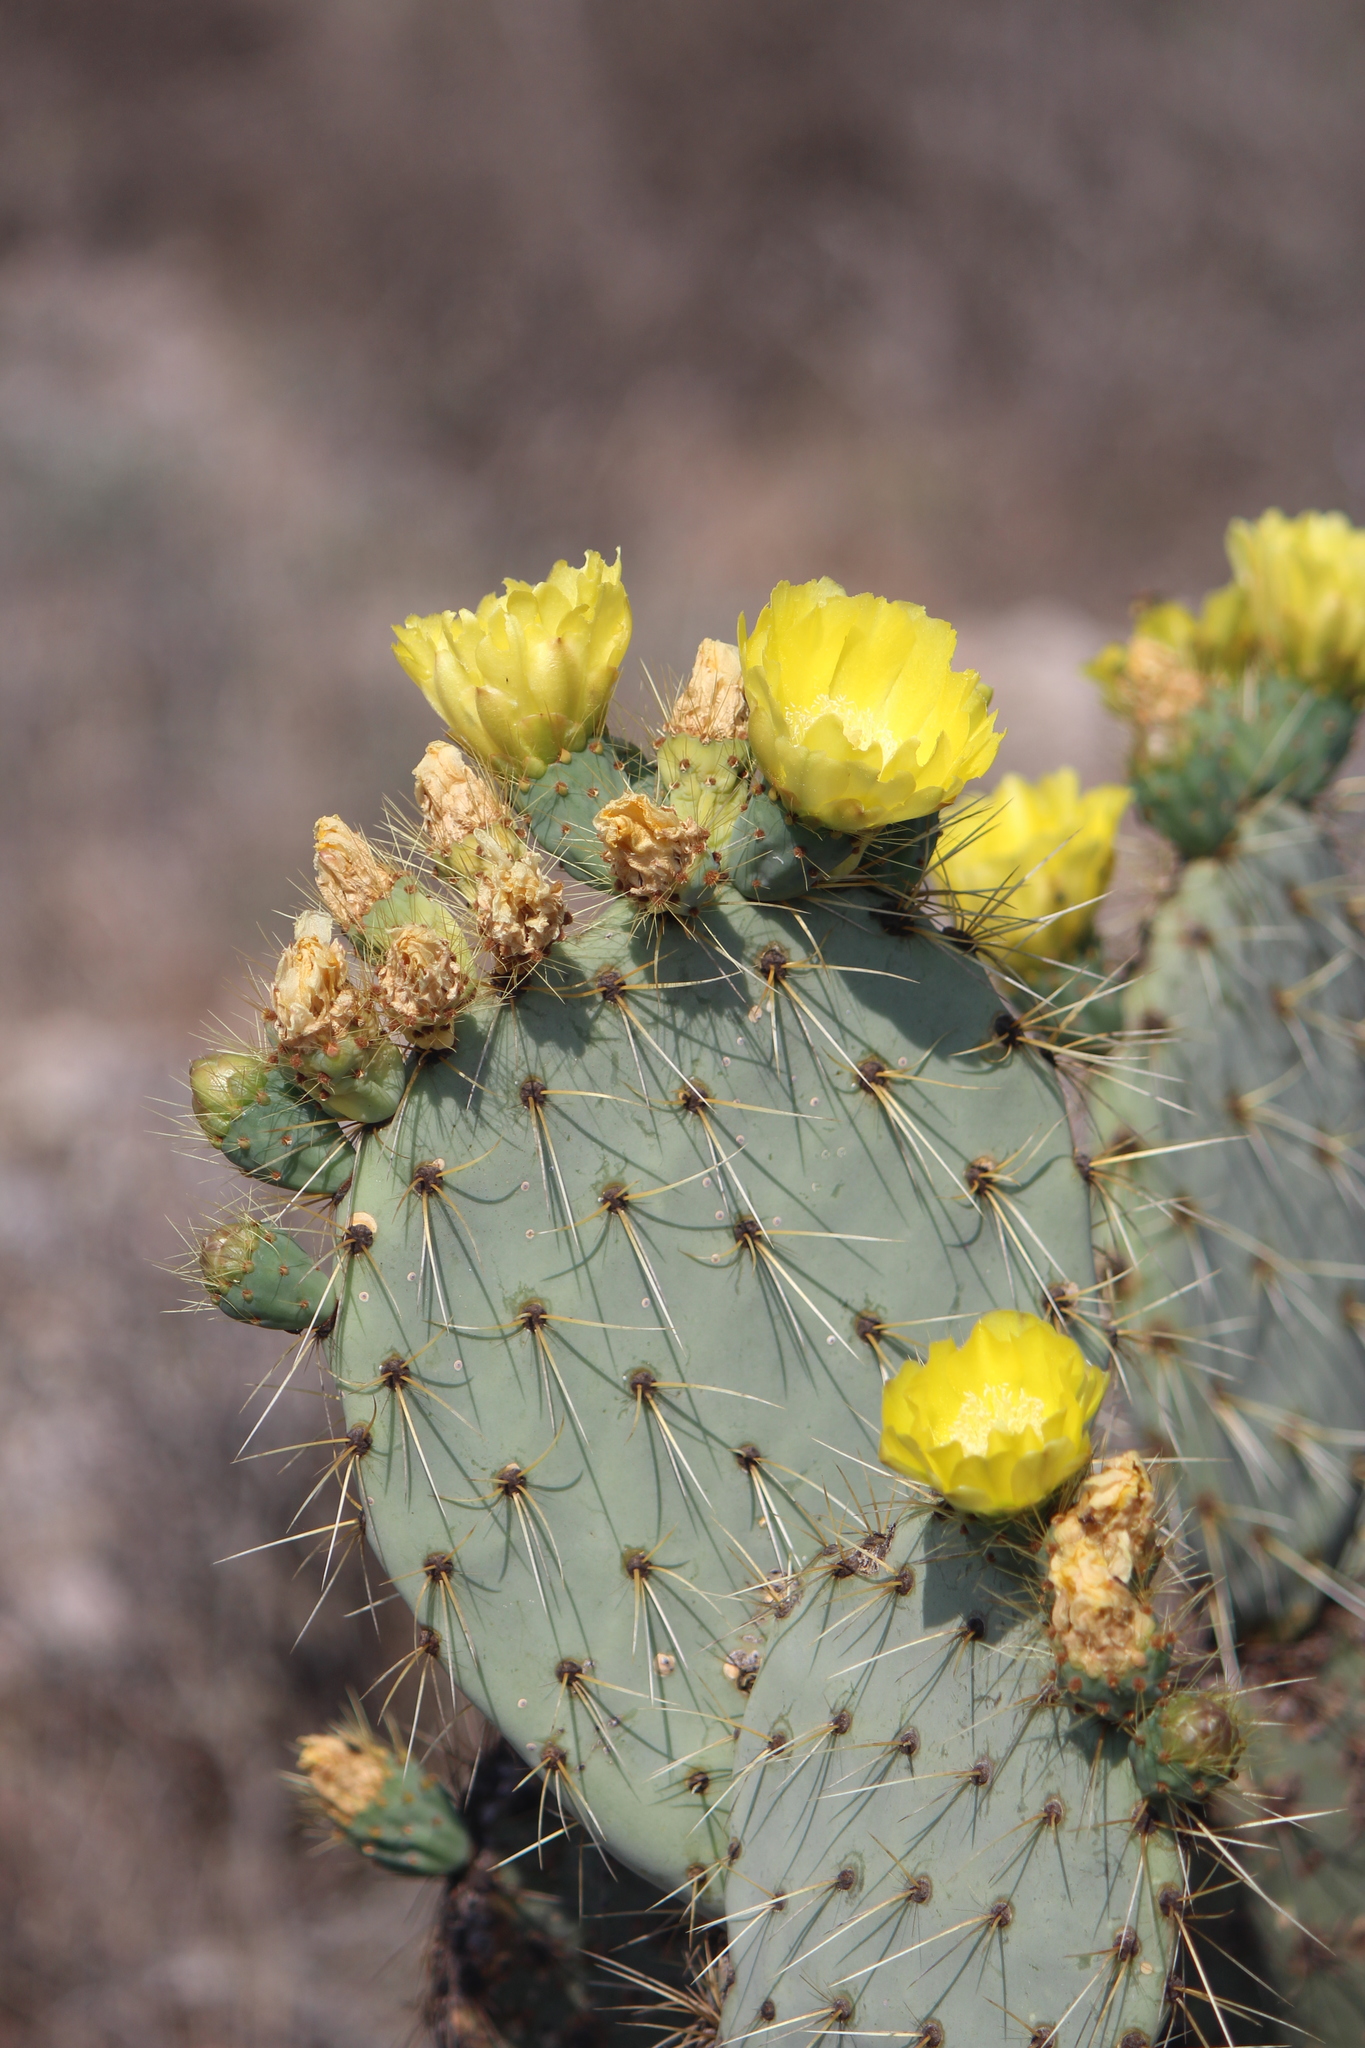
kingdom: Plantae
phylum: Tracheophyta
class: Magnoliopsida
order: Caryophyllales
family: Cactaceae
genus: Opuntia
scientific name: Opuntia robusta
